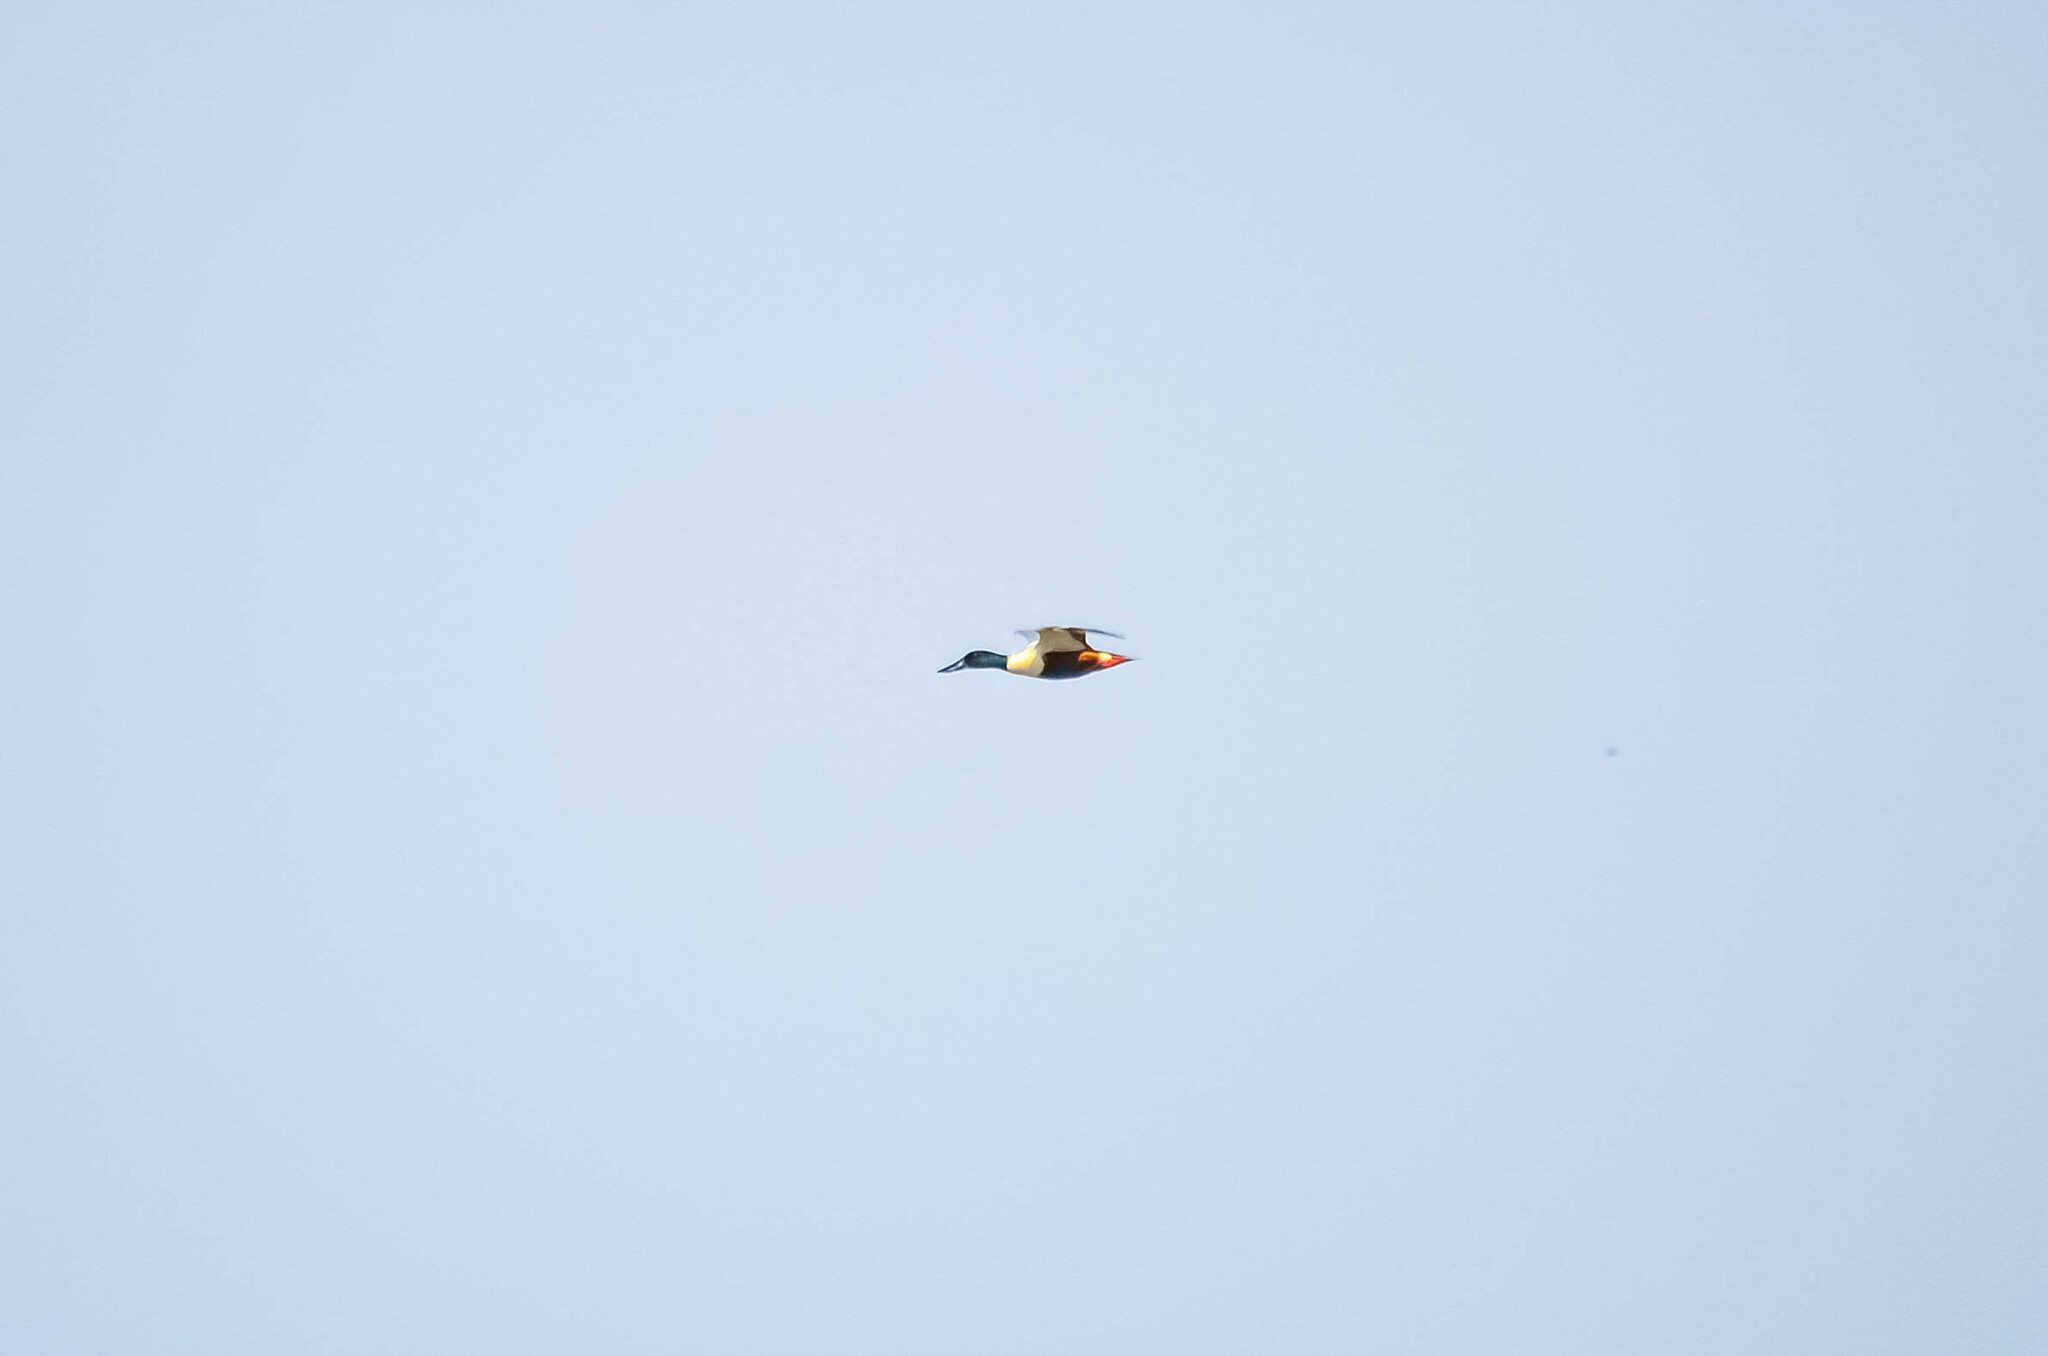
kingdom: Animalia
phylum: Chordata
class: Aves
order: Anseriformes
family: Anatidae
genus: Spatula
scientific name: Spatula clypeata
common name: Northern shoveler
